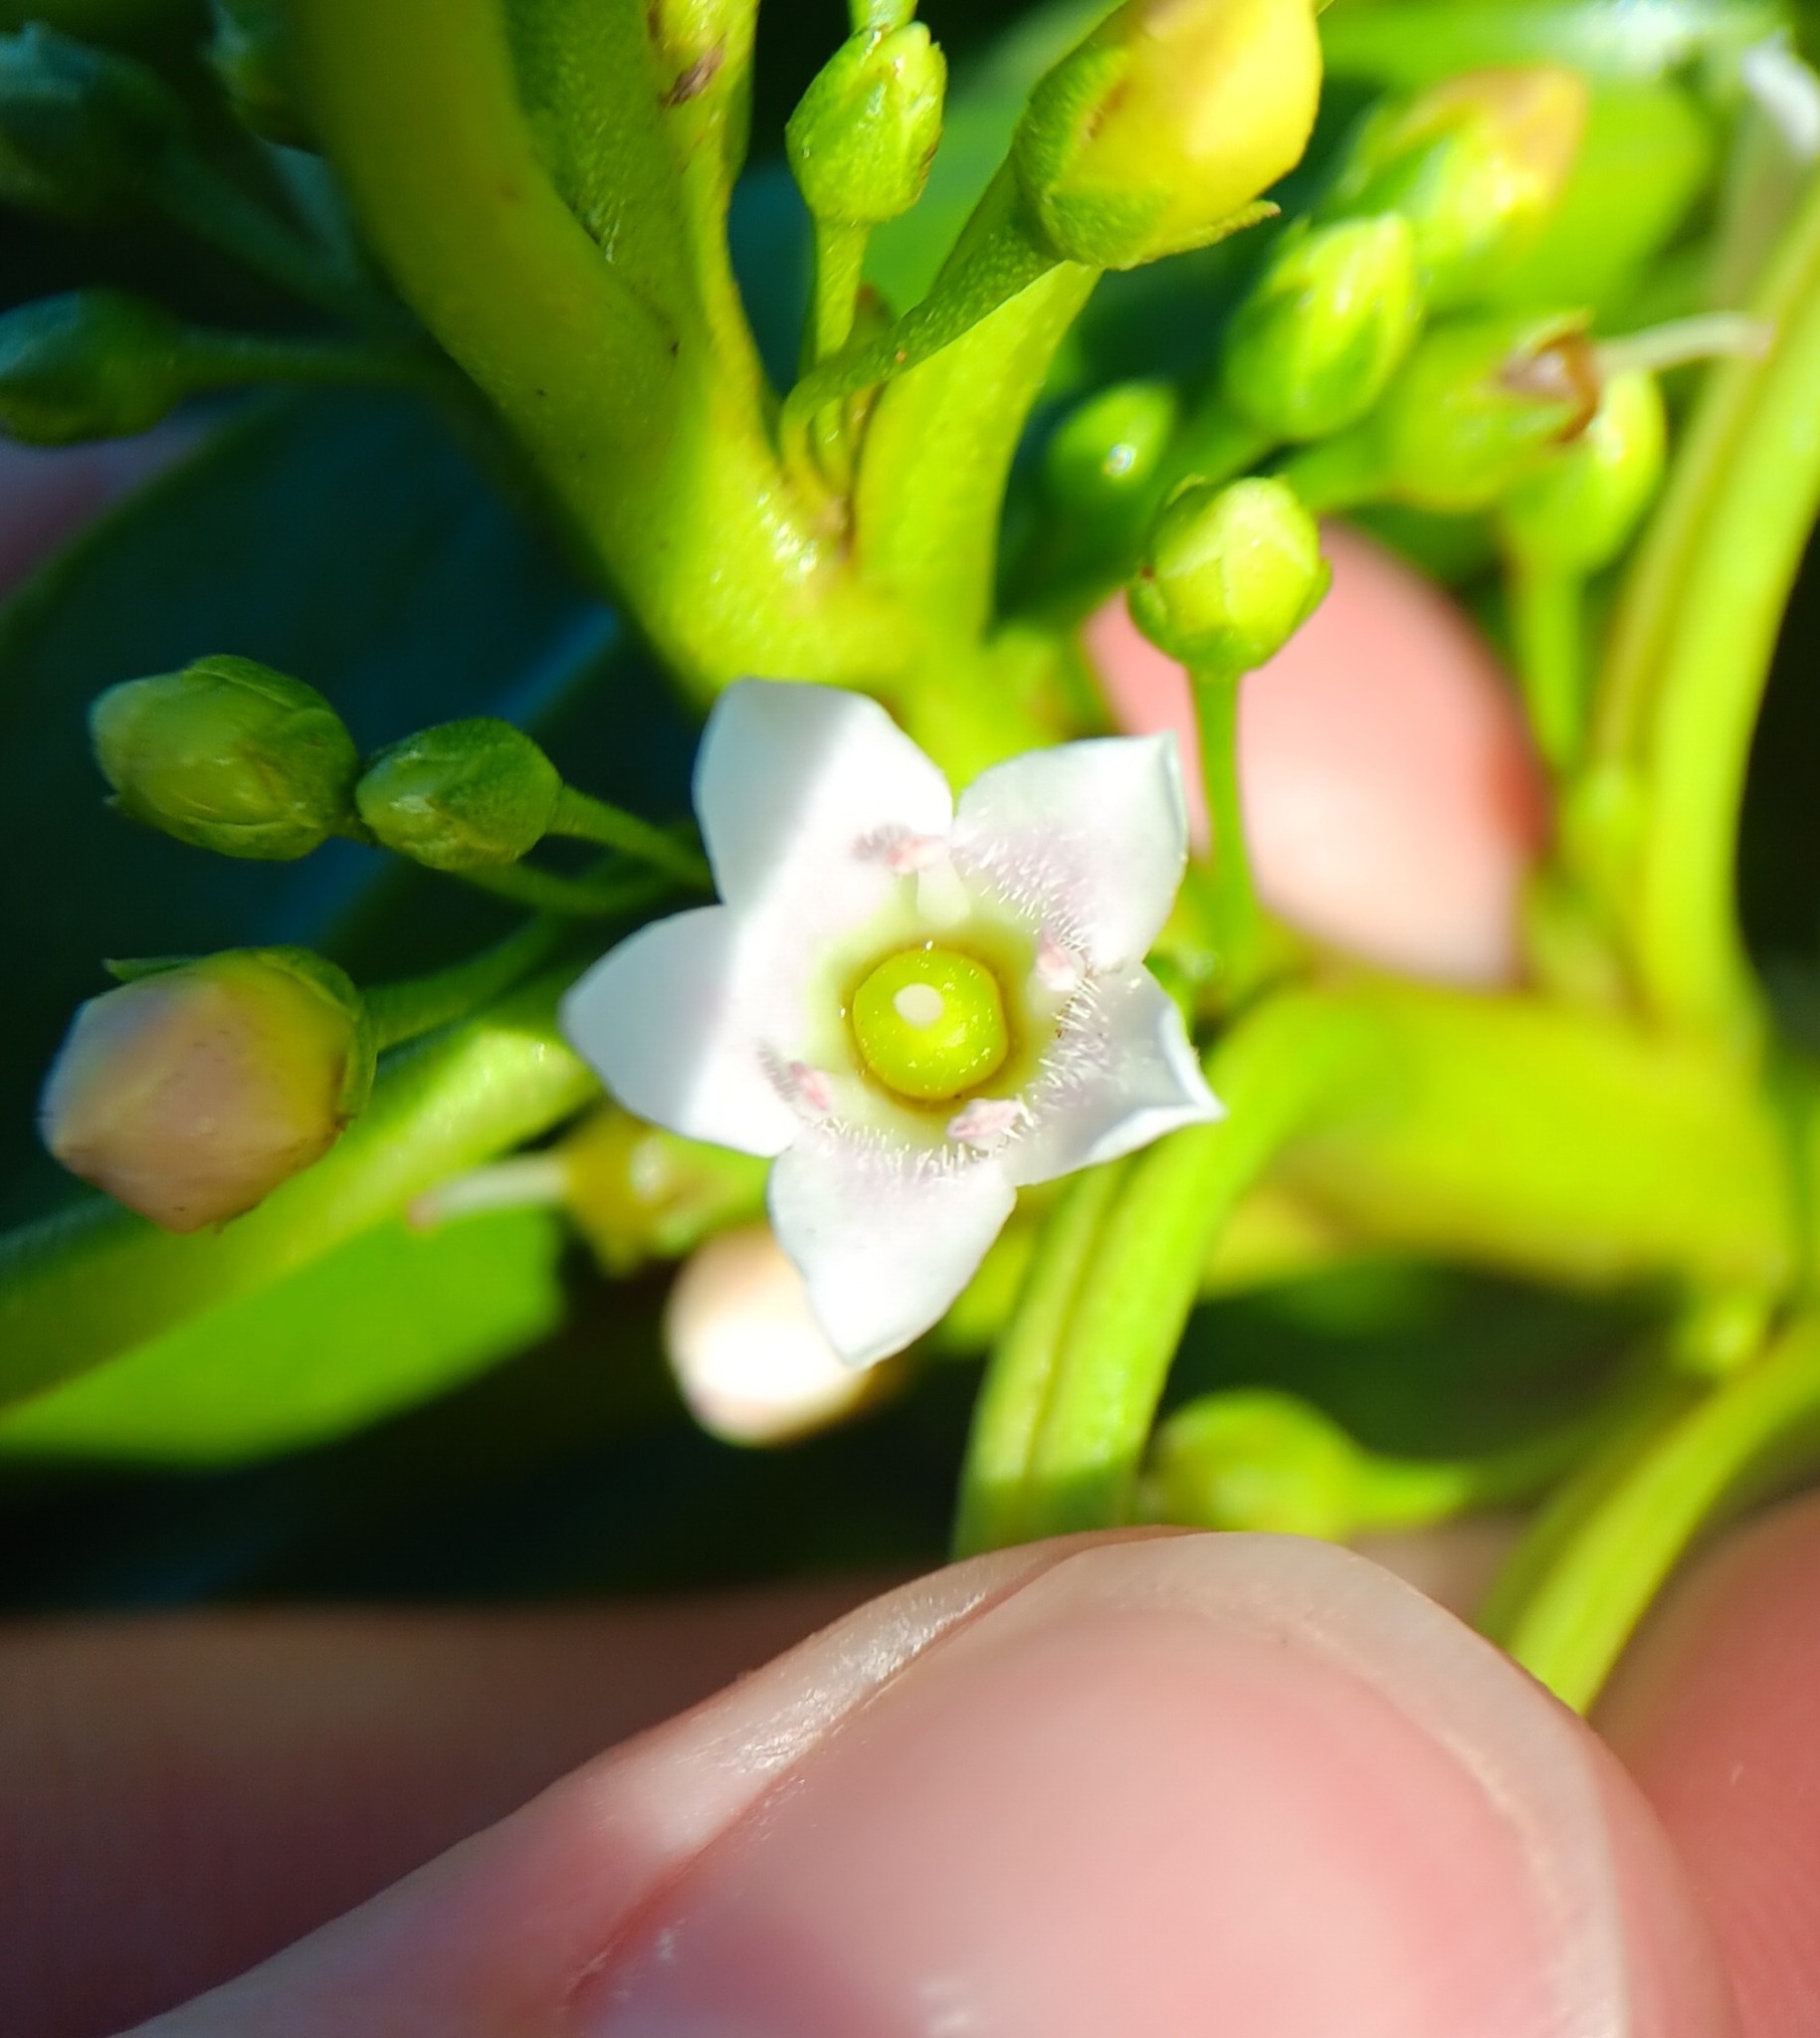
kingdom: Plantae
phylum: Tracheophyta
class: Magnoliopsida
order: Lamiales
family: Scrophulariaceae
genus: Myoporum
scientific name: Myoporum sandwicense
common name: Bastard-sandalwood
